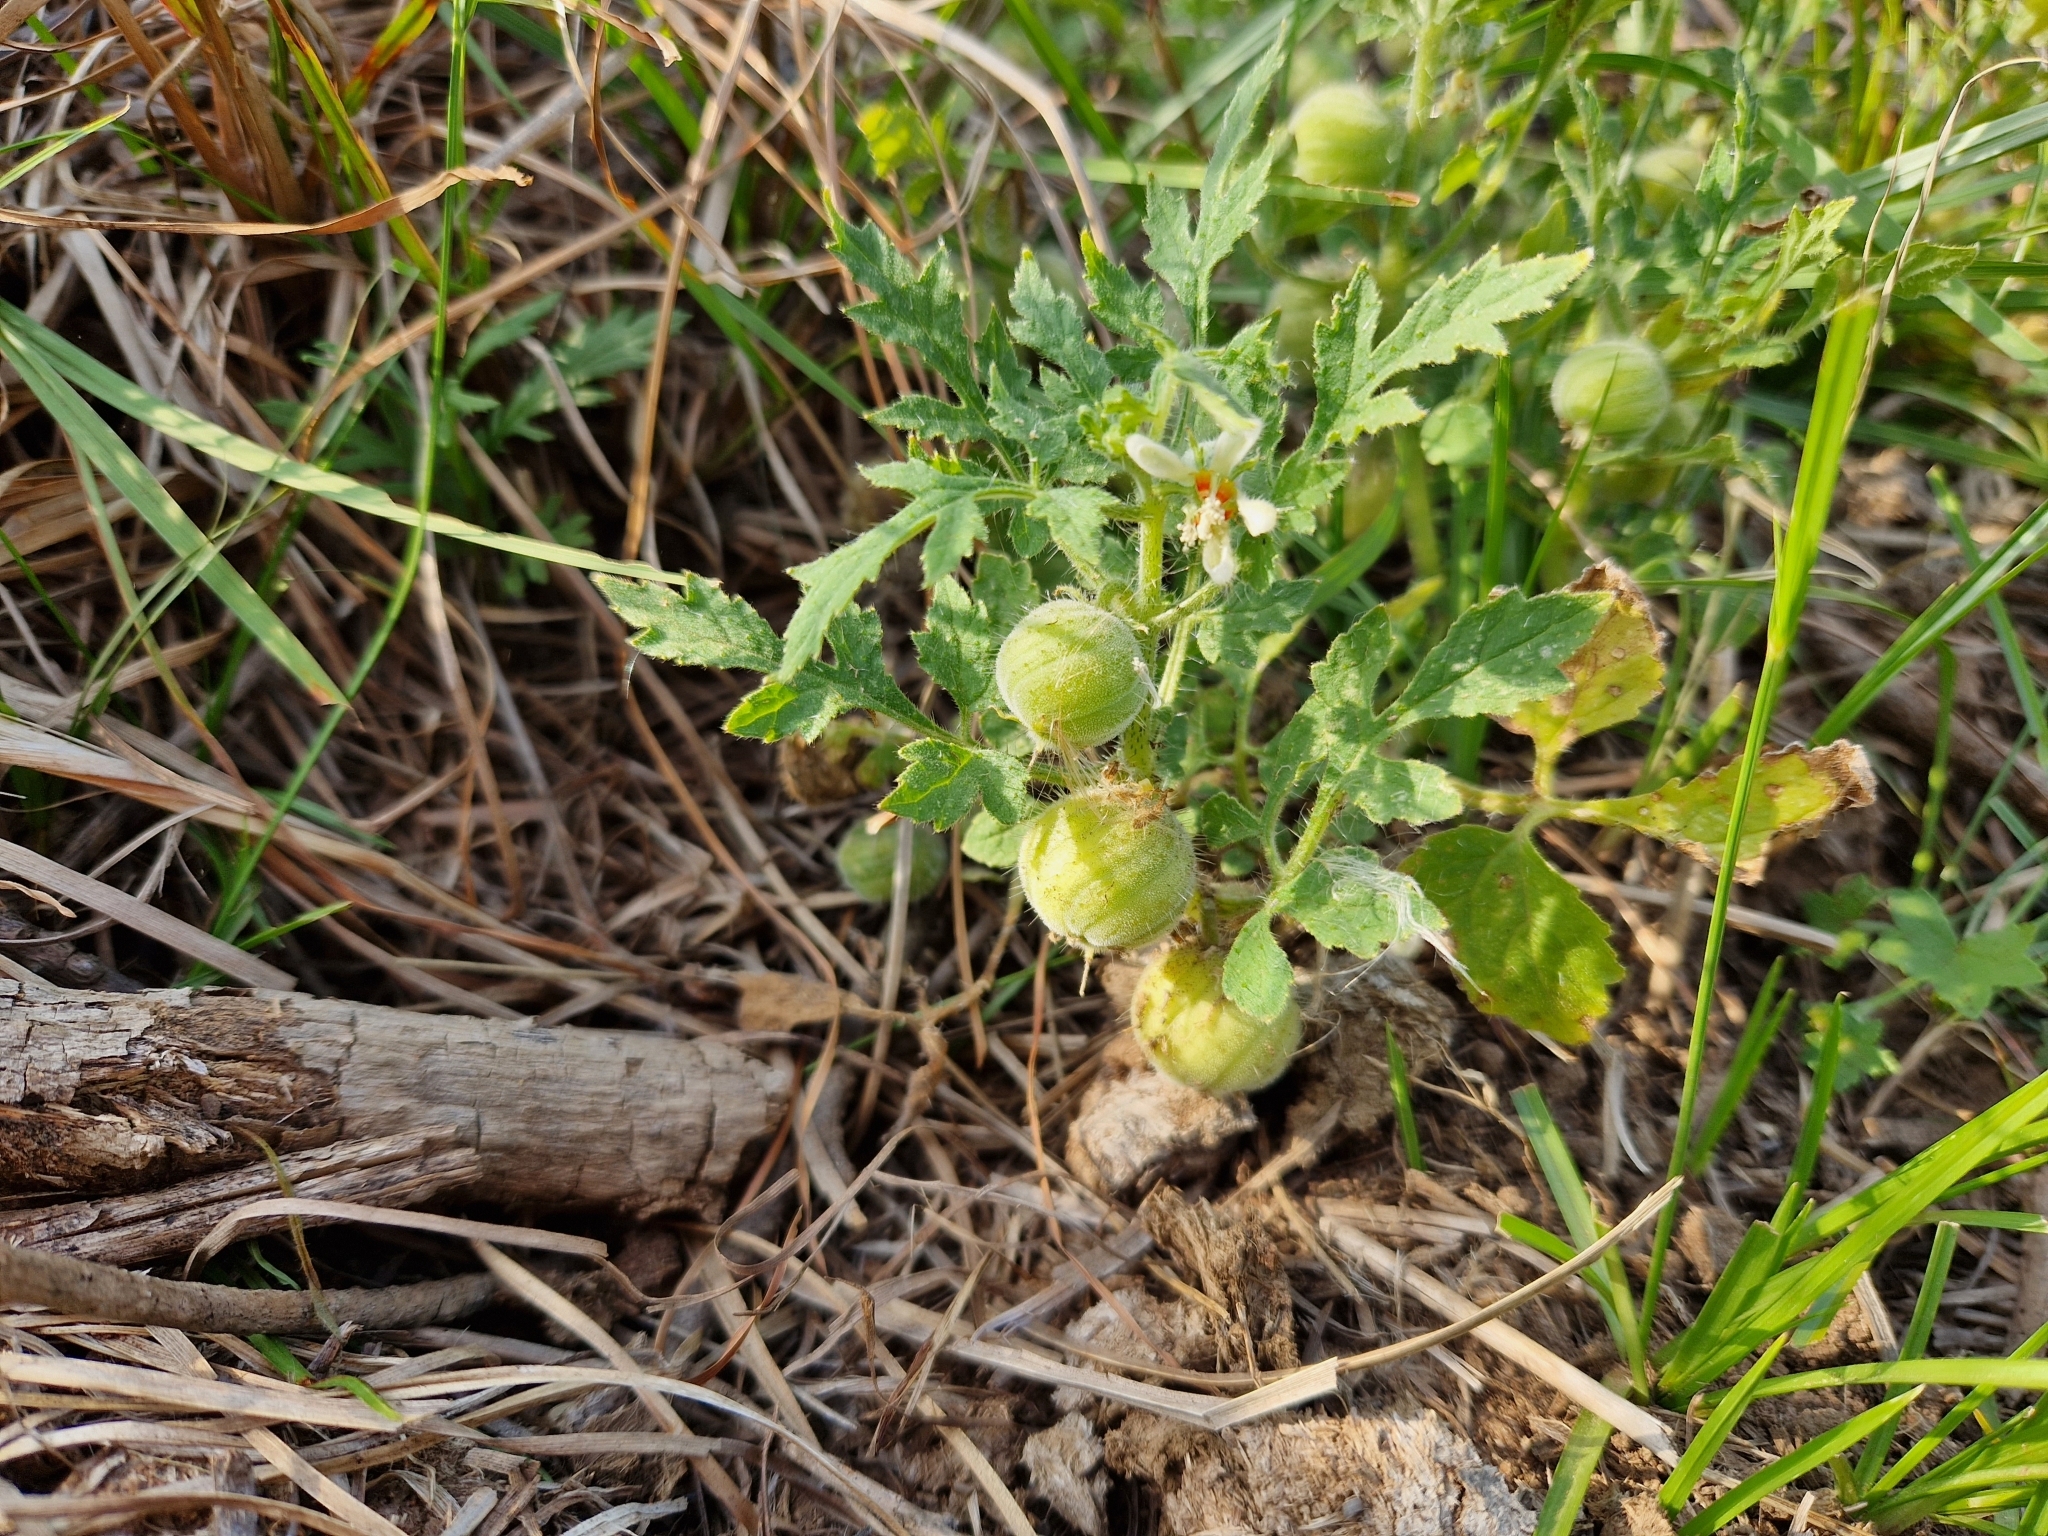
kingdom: Plantae
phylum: Tracheophyta
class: Magnoliopsida
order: Cornales
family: Loasaceae
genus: Blumenbachia
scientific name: Blumenbachia latifolia
